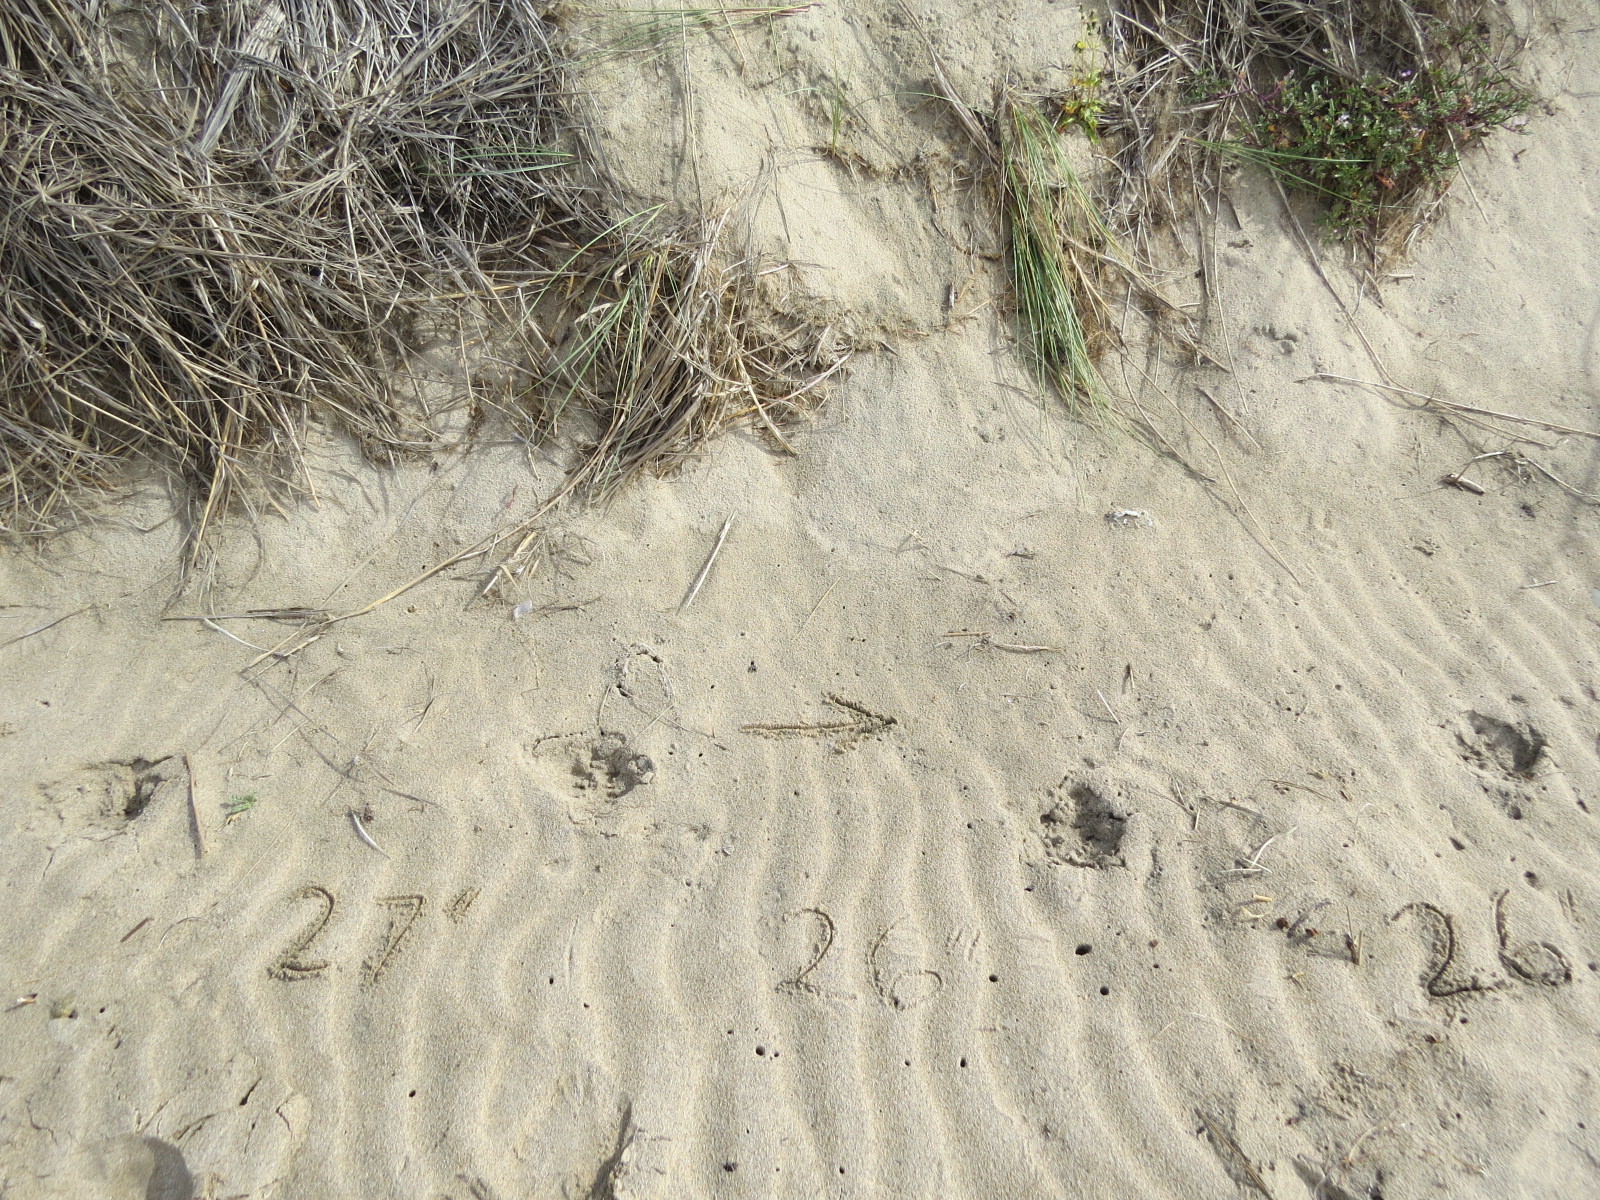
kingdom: Animalia
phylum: Chordata
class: Mammalia
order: Carnivora
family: Felidae
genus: Puma
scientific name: Puma concolor
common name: Puma
